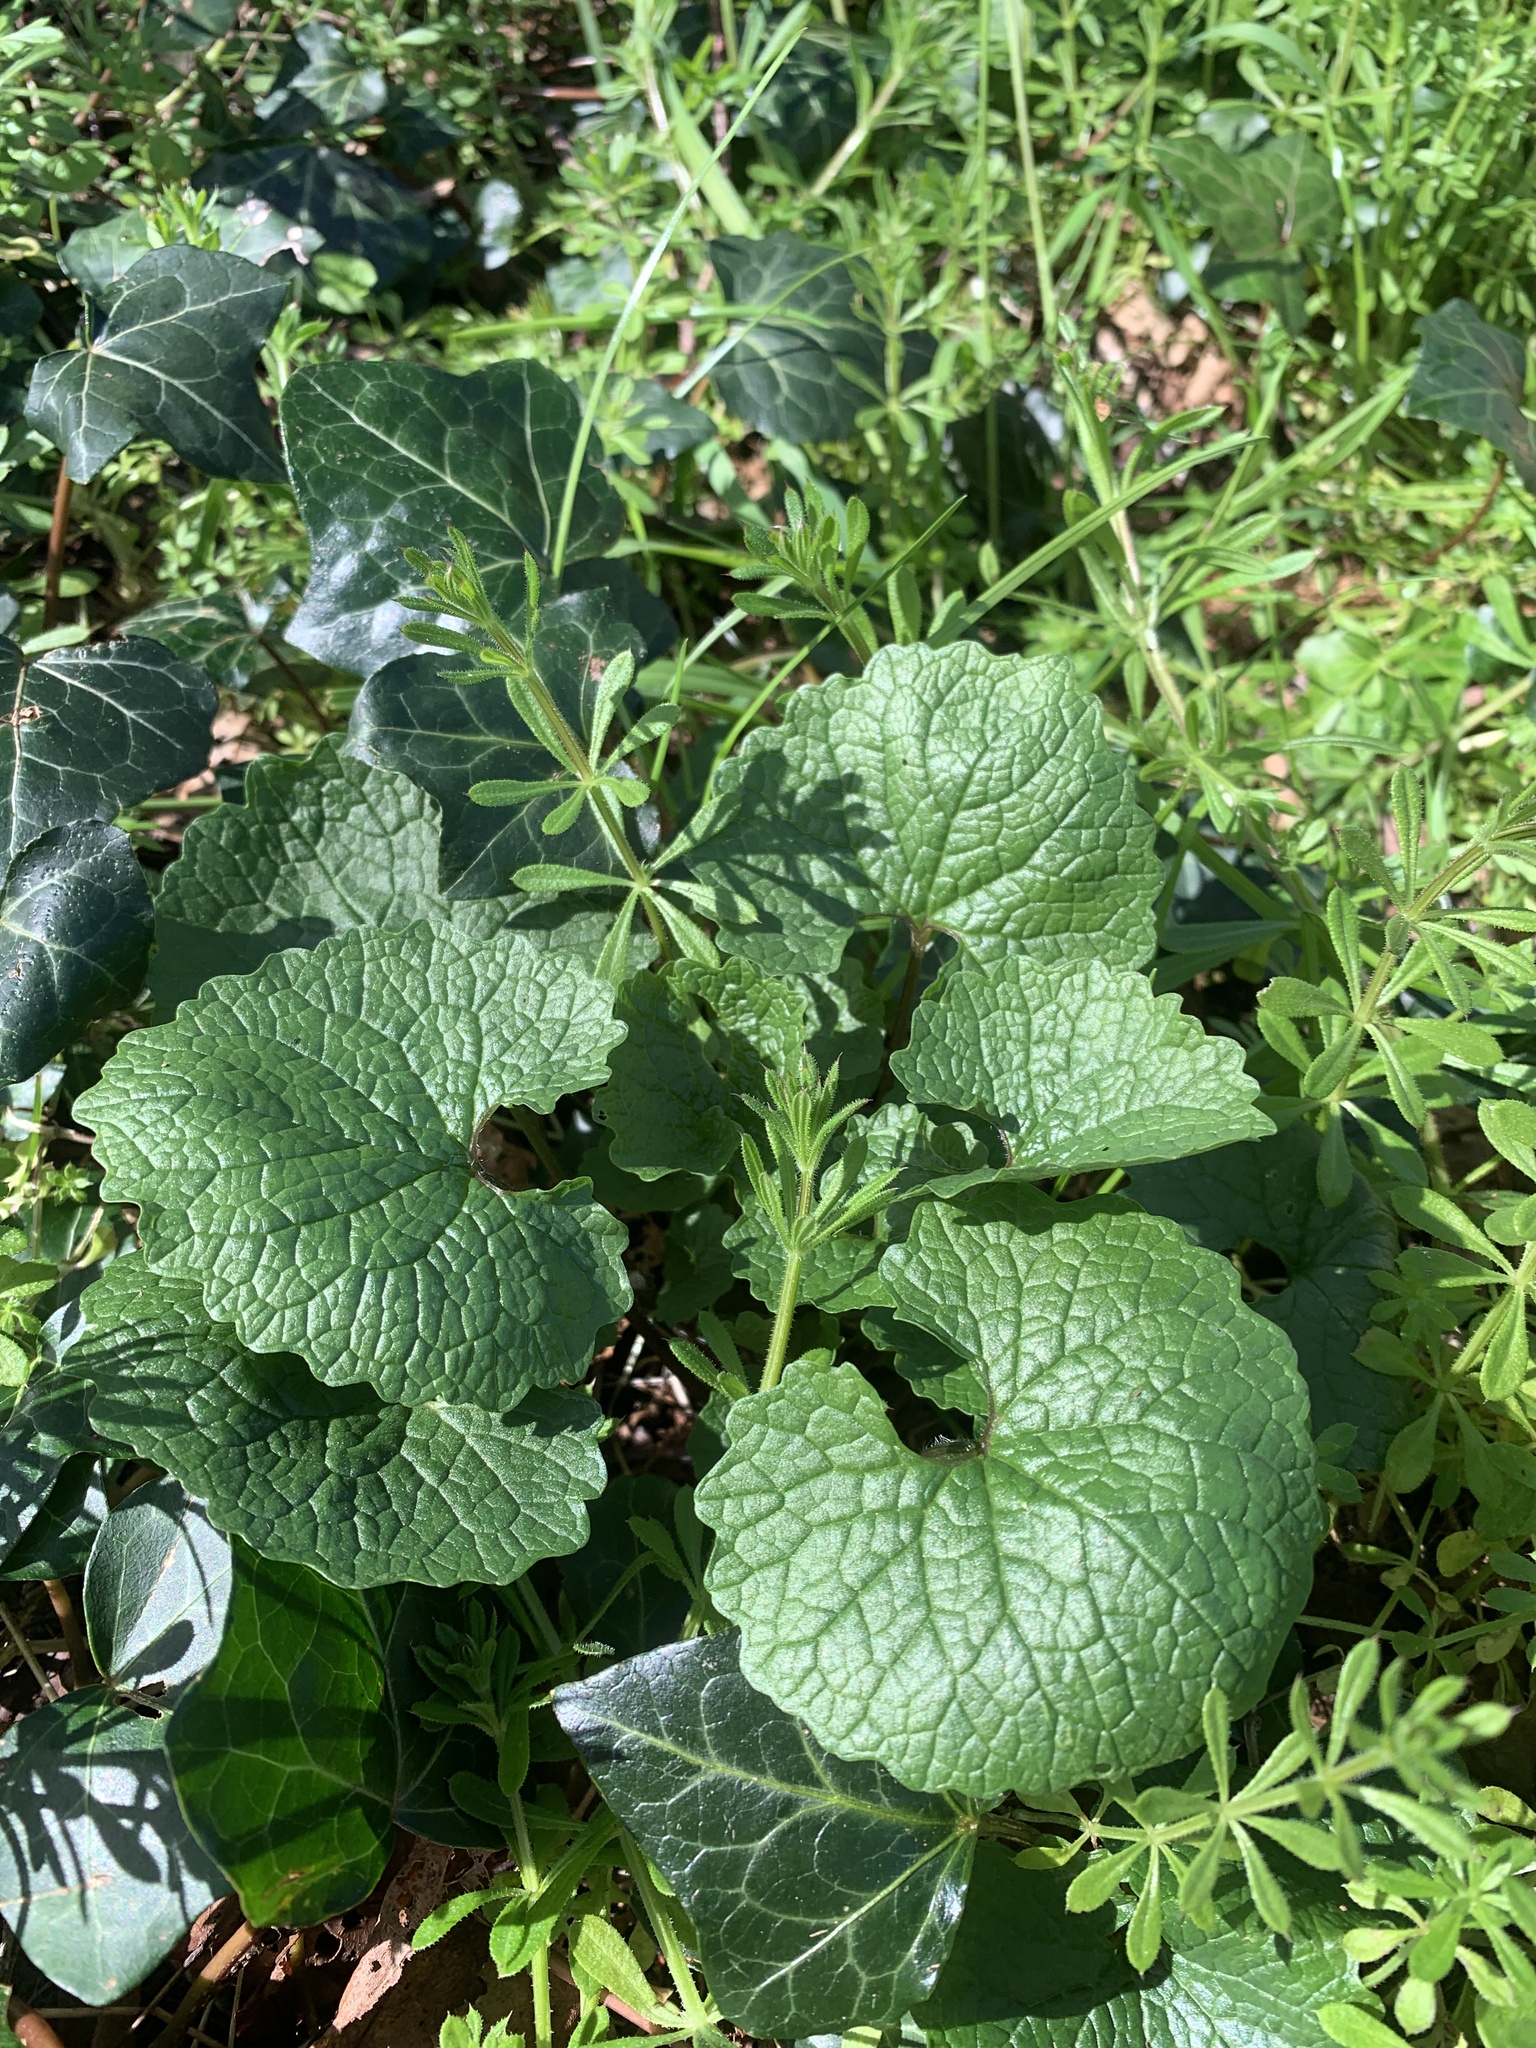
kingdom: Plantae
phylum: Tracheophyta
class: Magnoliopsida
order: Brassicales
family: Brassicaceae
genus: Alliaria
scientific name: Alliaria petiolata
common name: Garlic mustard
